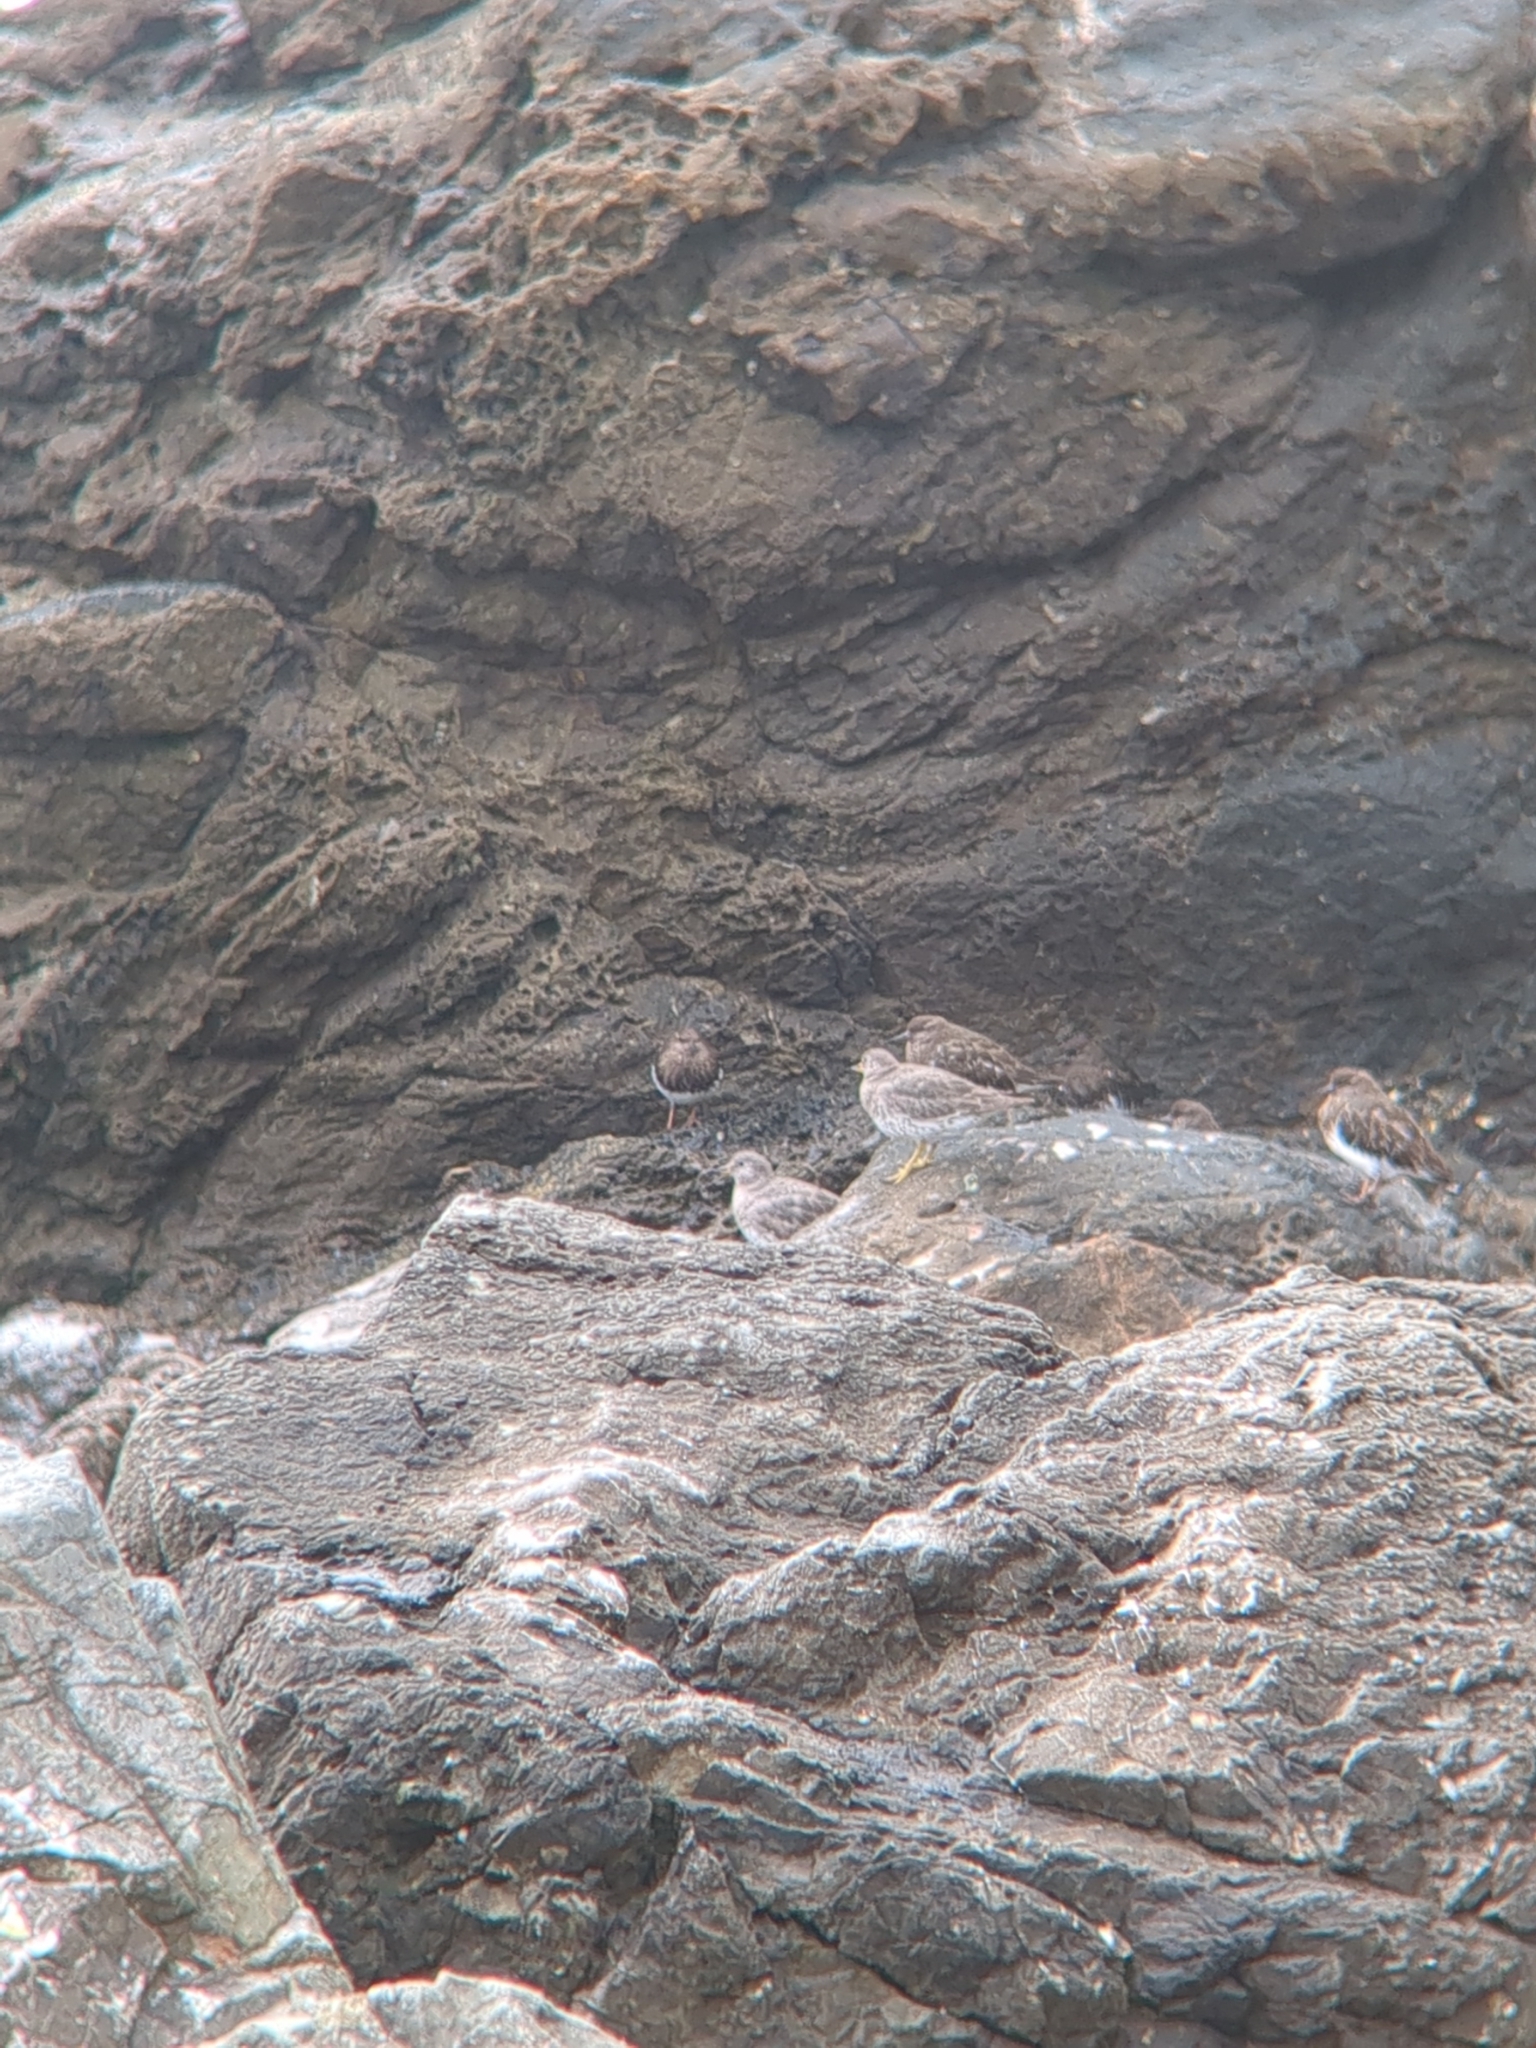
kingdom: Animalia
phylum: Chordata
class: Aves
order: Charadriiformes
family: Scolopacidae
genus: Arenaria
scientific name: Arenaria melanocephala
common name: Black turnstone
